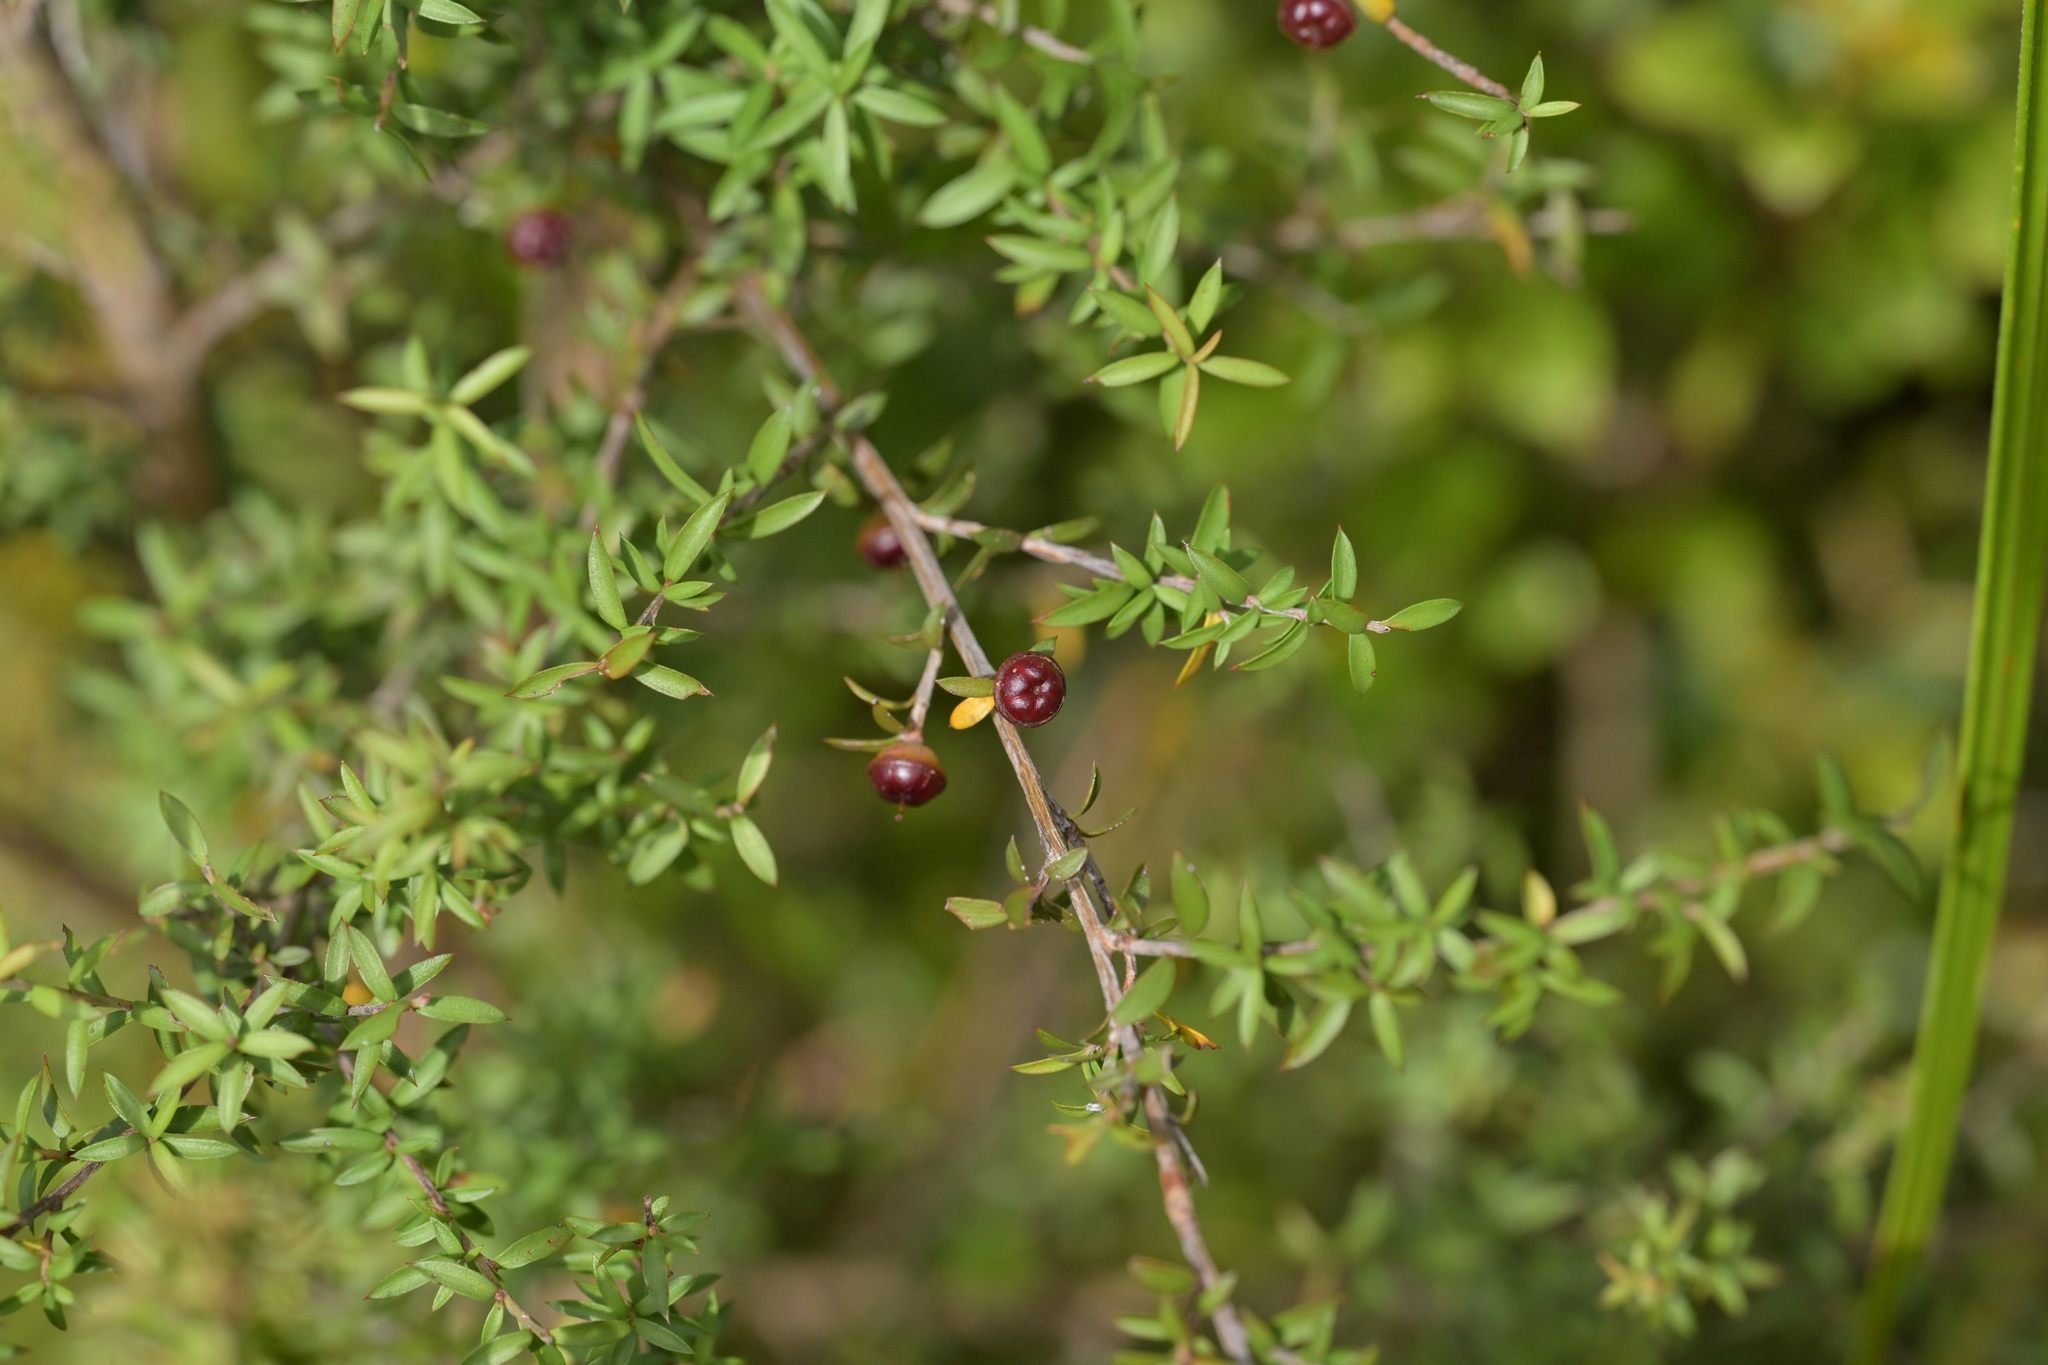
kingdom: Plantae
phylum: Tracheophyta
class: Magnoliopsida
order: Myrtales
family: Myrtaceae
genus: Leptospermum
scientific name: Leptospermum scoparium
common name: Broom tea-tree
